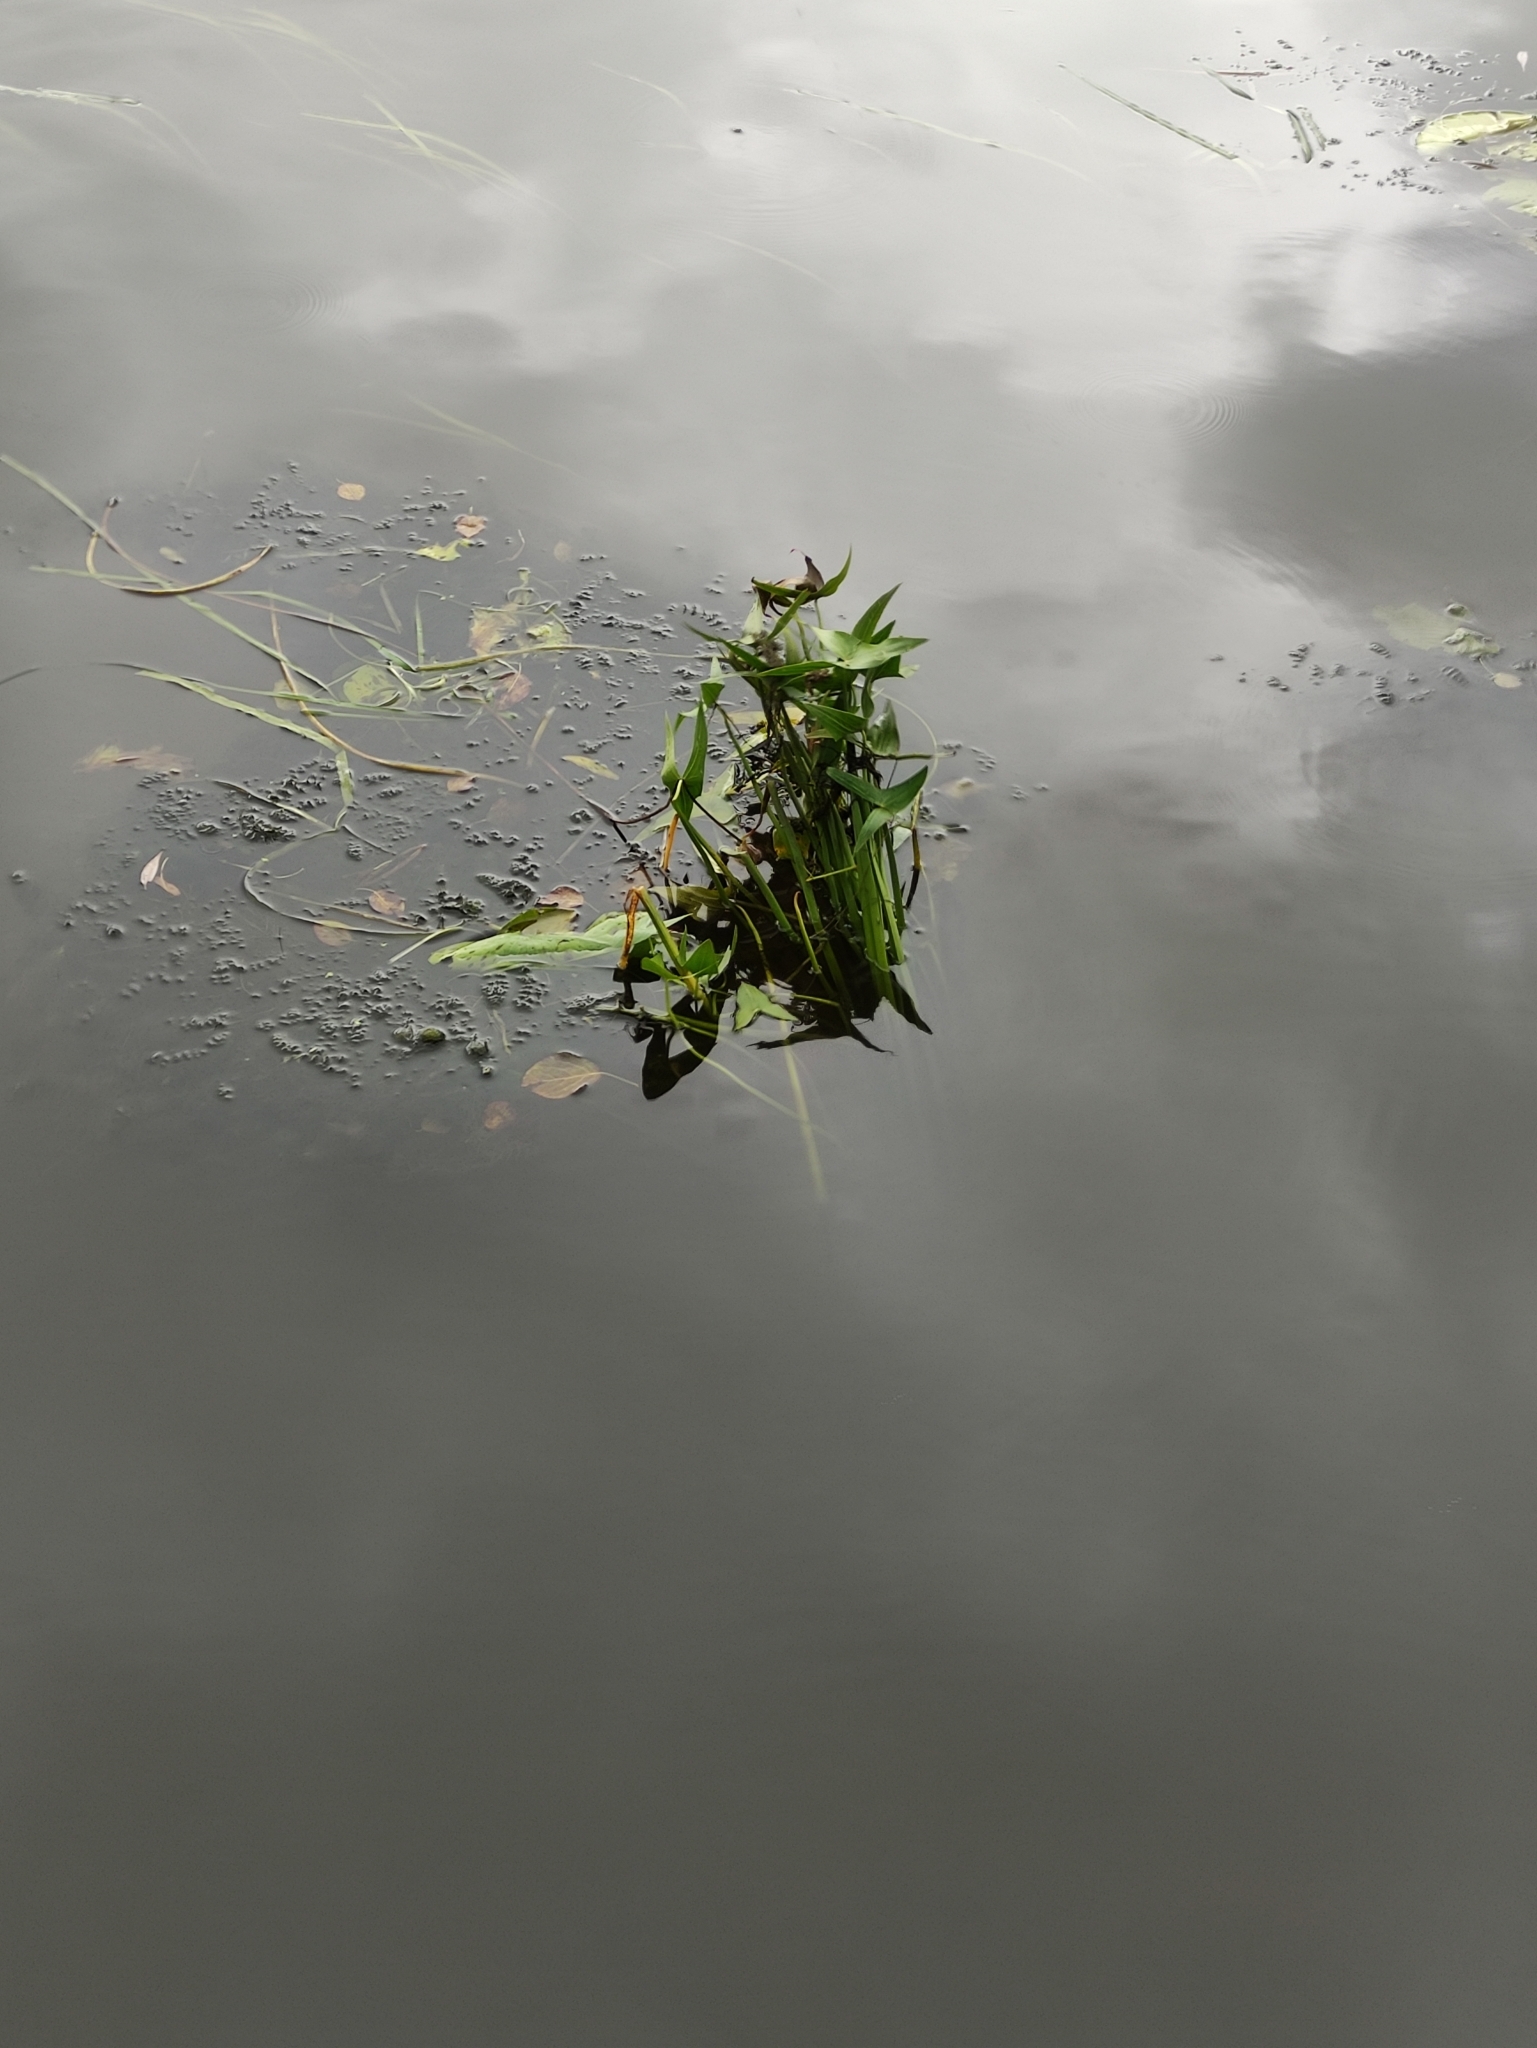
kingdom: Plantae
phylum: Tracheophyta
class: Liliopsida
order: Alismatales
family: Alismataceae
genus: Sagittaria
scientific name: Sagittaria sagittifolia
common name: Arrowhead
